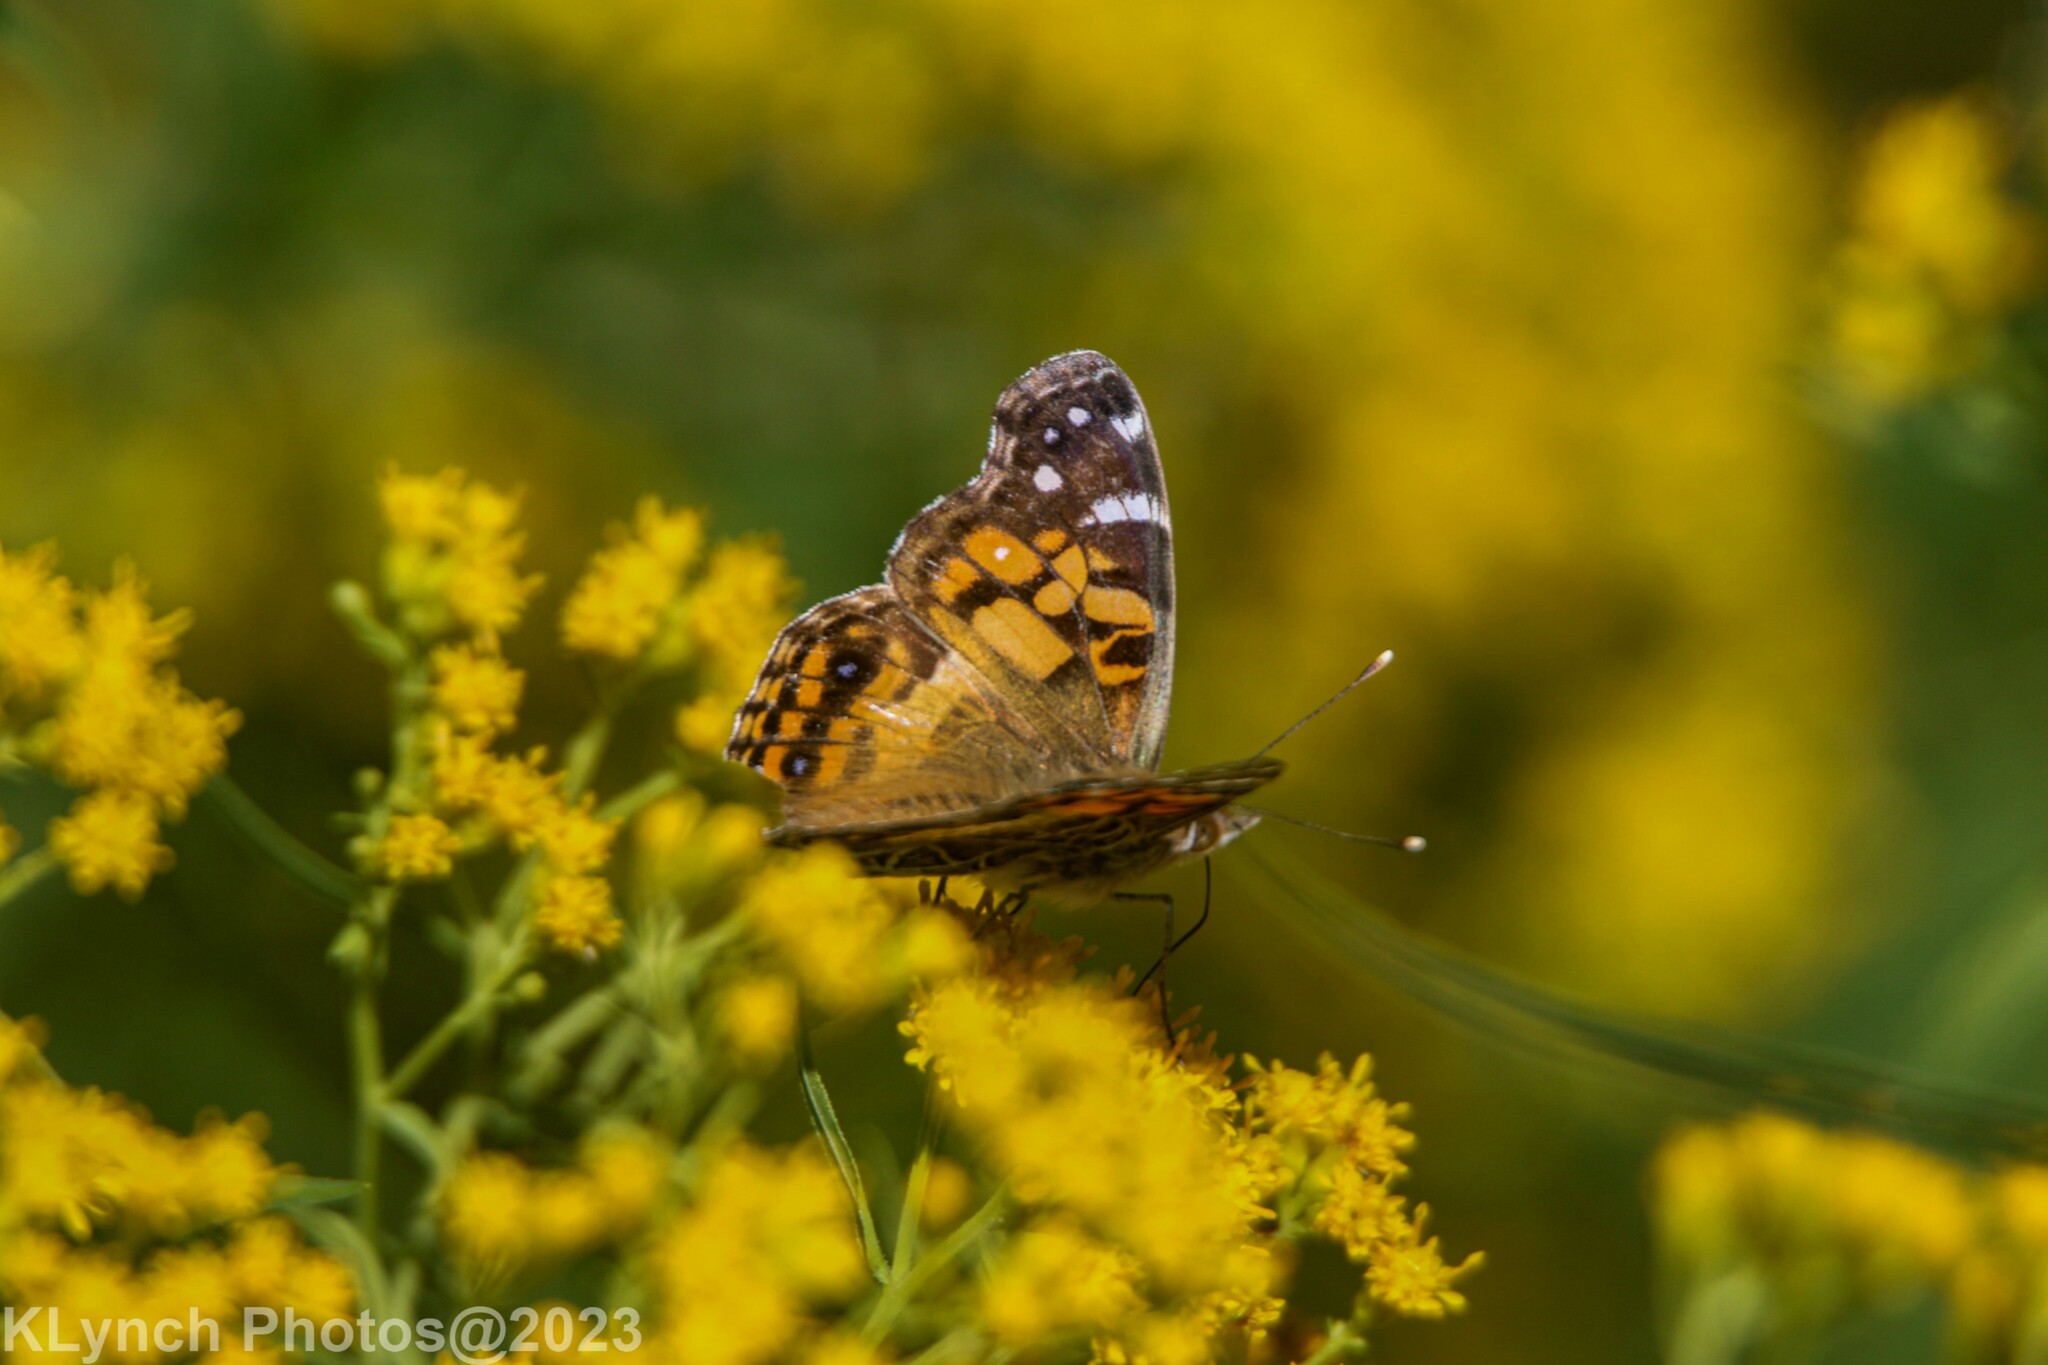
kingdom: Animalia
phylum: Arthropoda
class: Insecta
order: Lepidoptera
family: Nymphalidae
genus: Vanessa
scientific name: Vanessa virginiensis
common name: American lady
